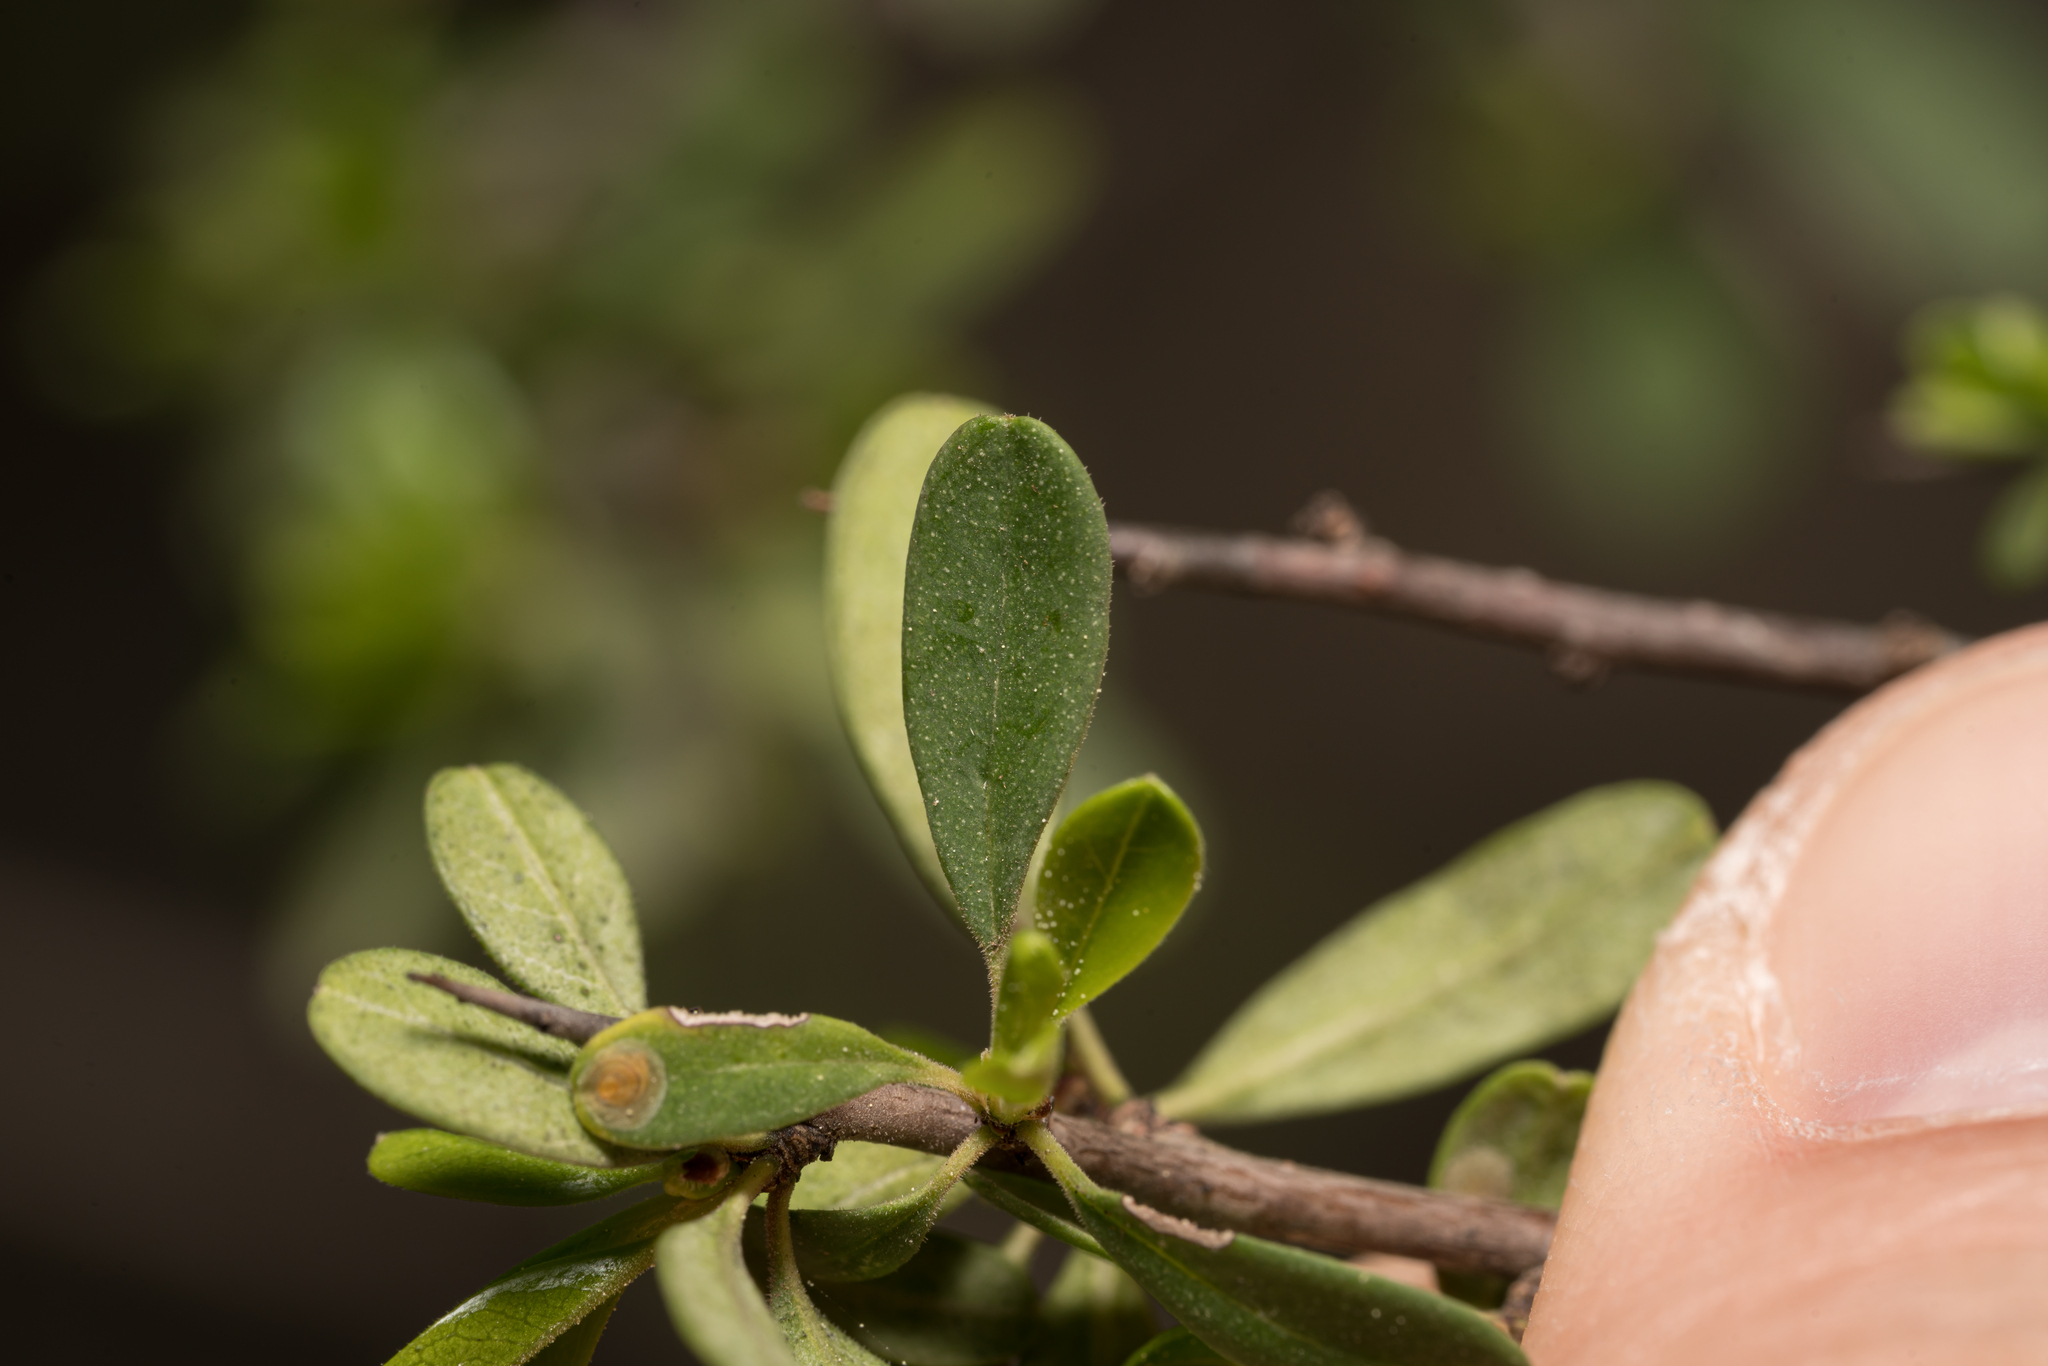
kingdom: Plantae
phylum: Tracheophyta
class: Magnoliopsida
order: Rosales
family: Rhamnaceae
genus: Rhamnus
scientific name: Rhamnus pichleri
